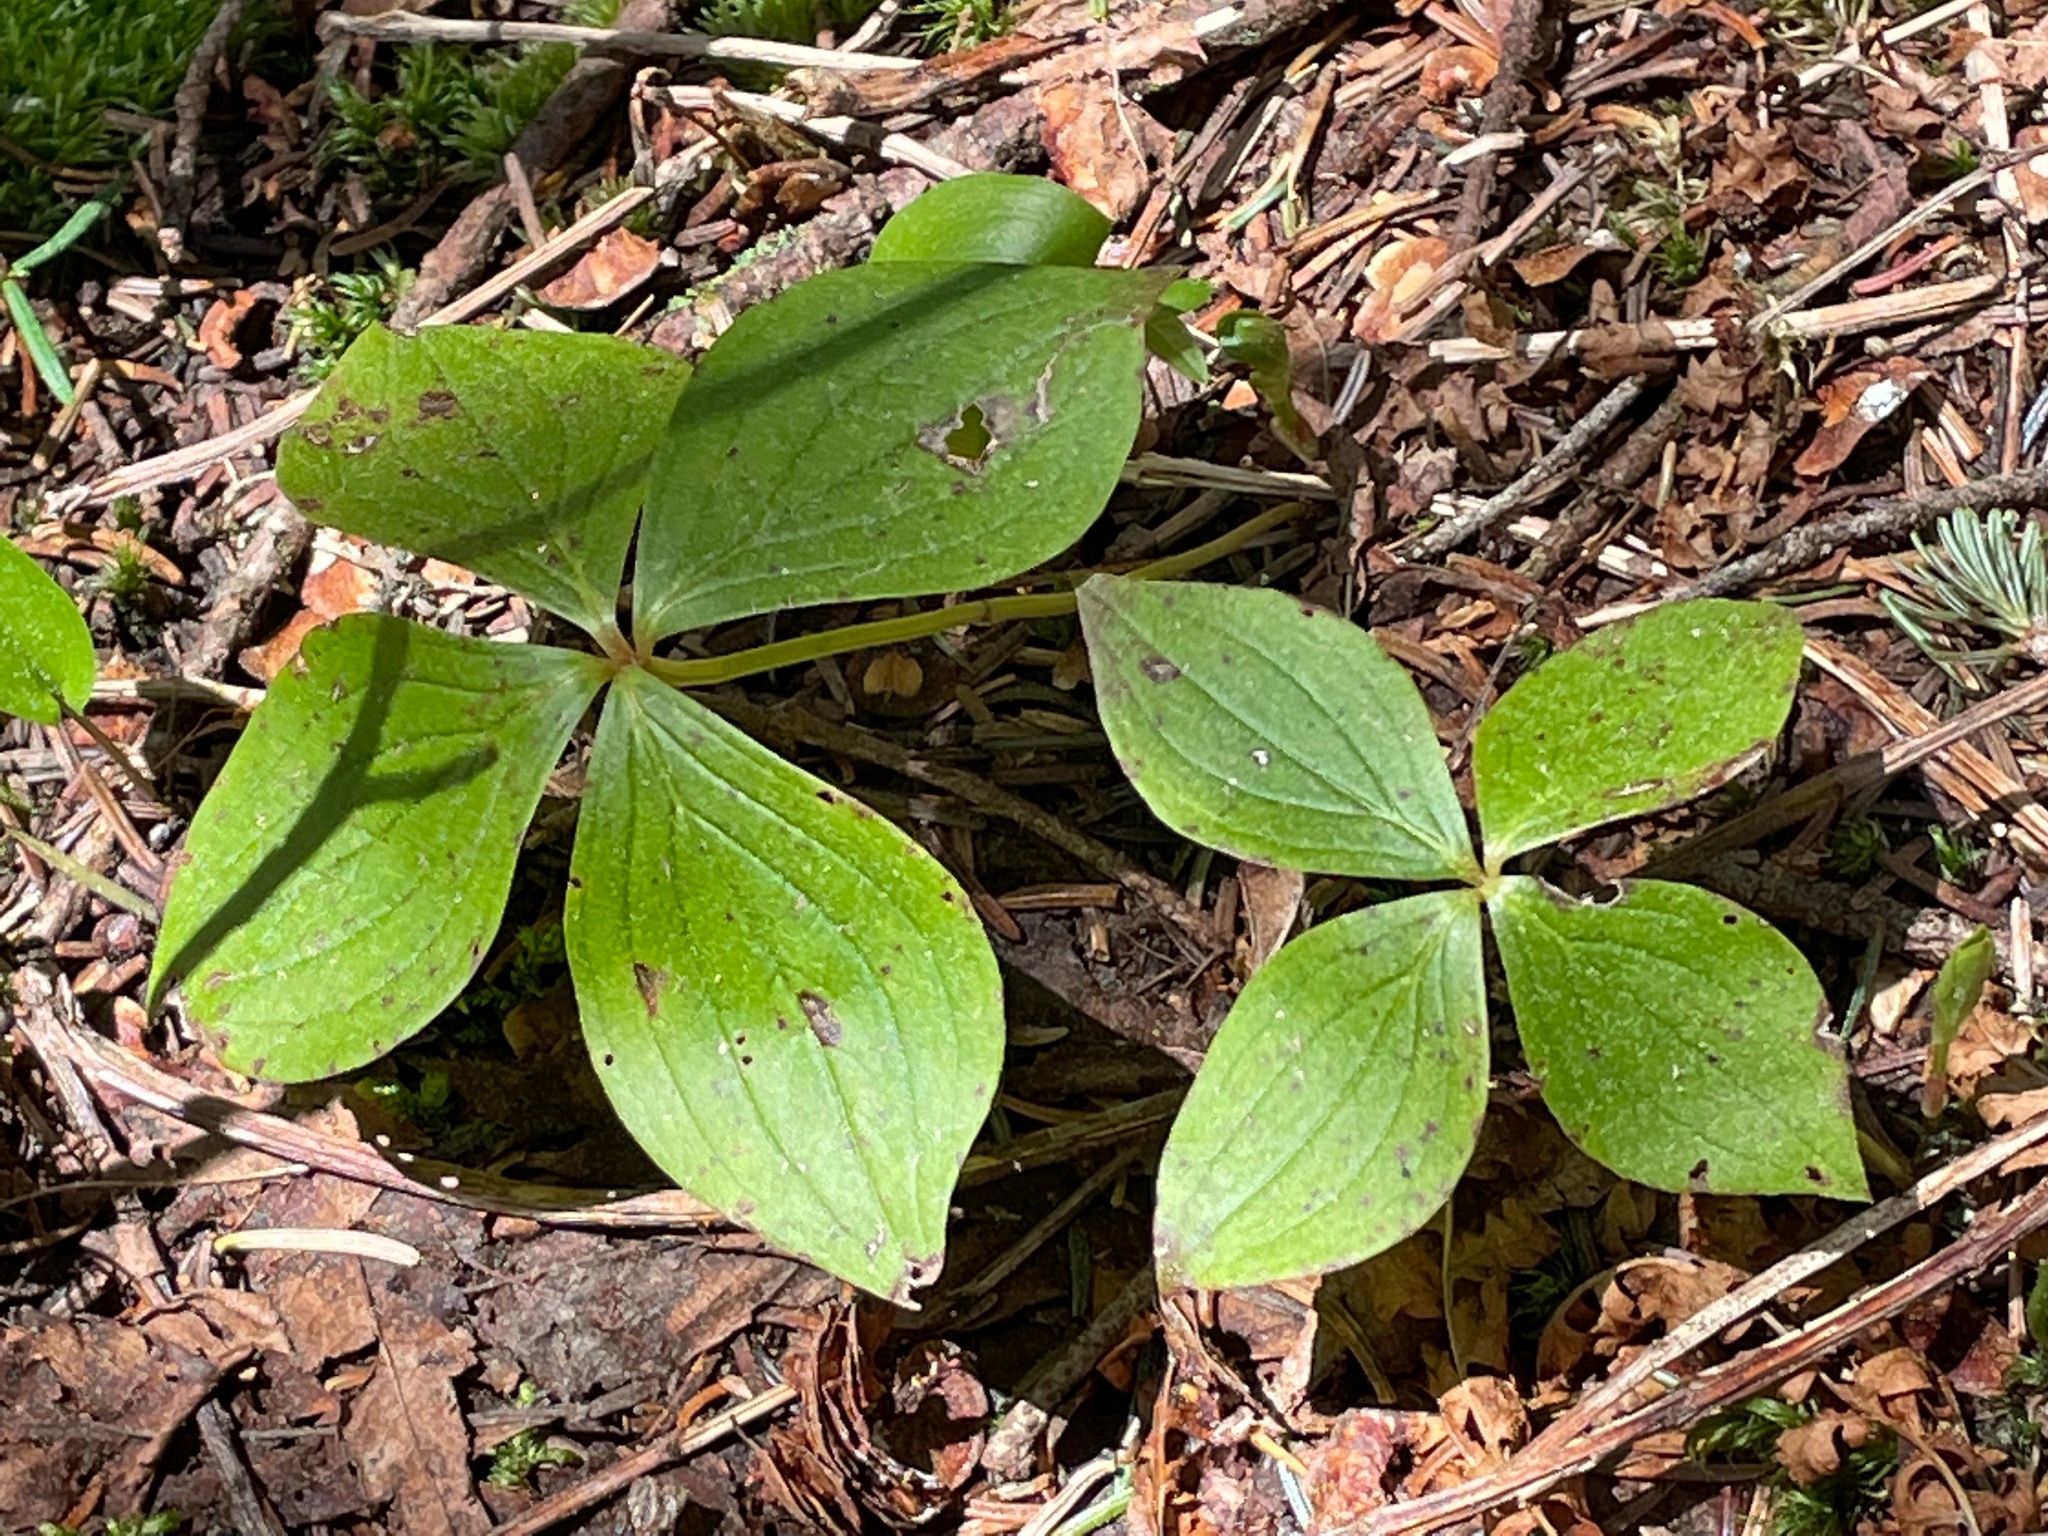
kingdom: Plantae
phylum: Tracheophyta
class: Magnoliopsida
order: Cornales
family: Cornaceae
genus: Cornus
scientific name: Cornus canadensis
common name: Creeping dogwood
